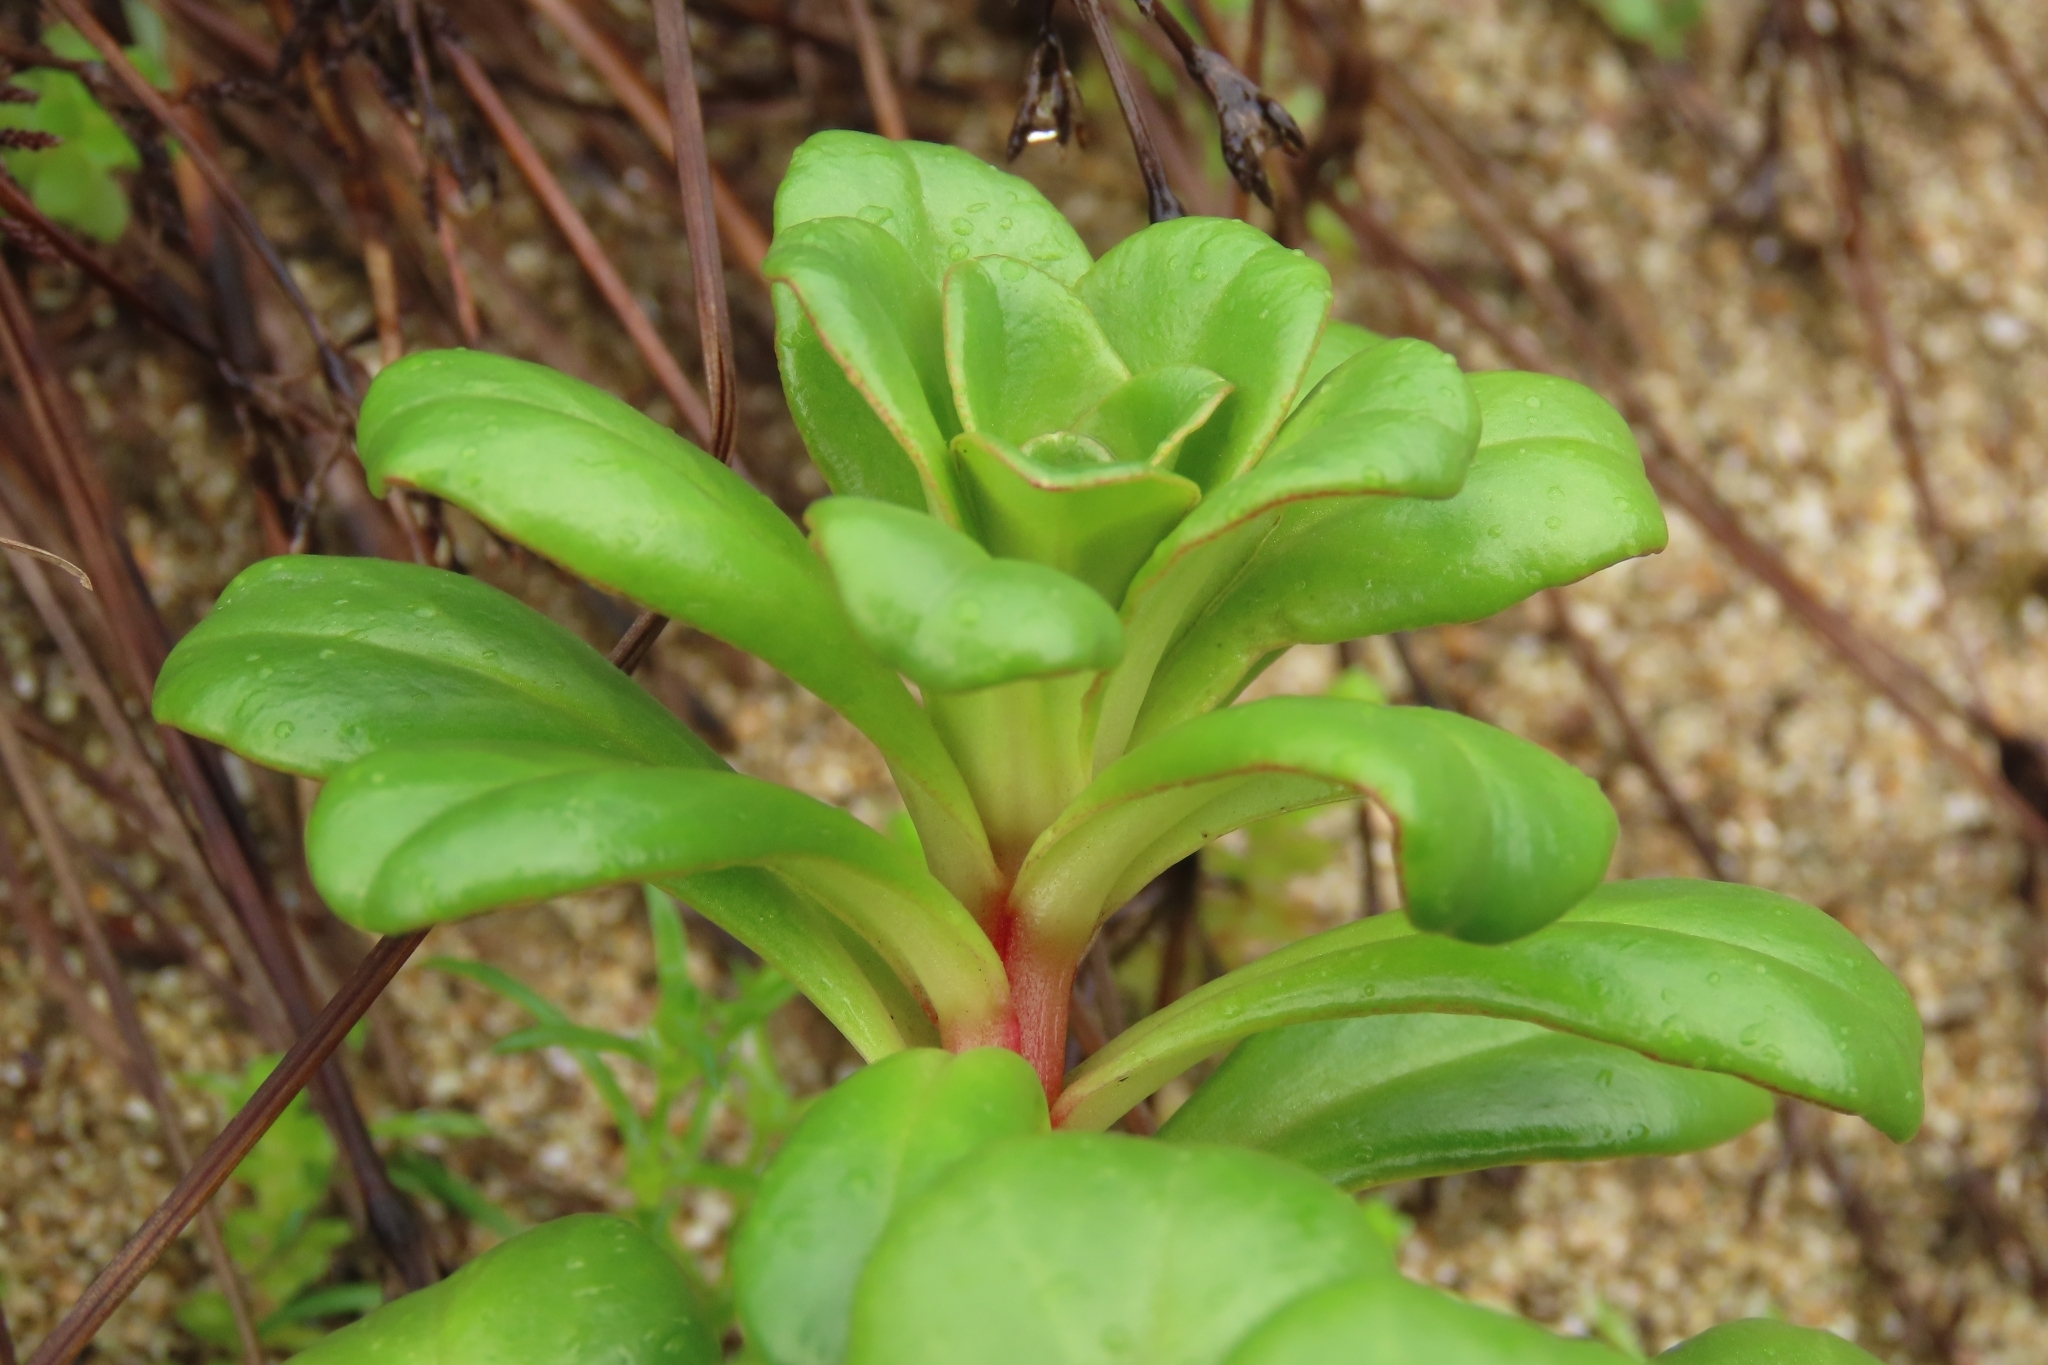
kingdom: Plantae
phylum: Tracheophyta
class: Magnoliopsida
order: Ericales
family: Primulaceae
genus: Lysimachia
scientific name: Lysimachia mauritiana
